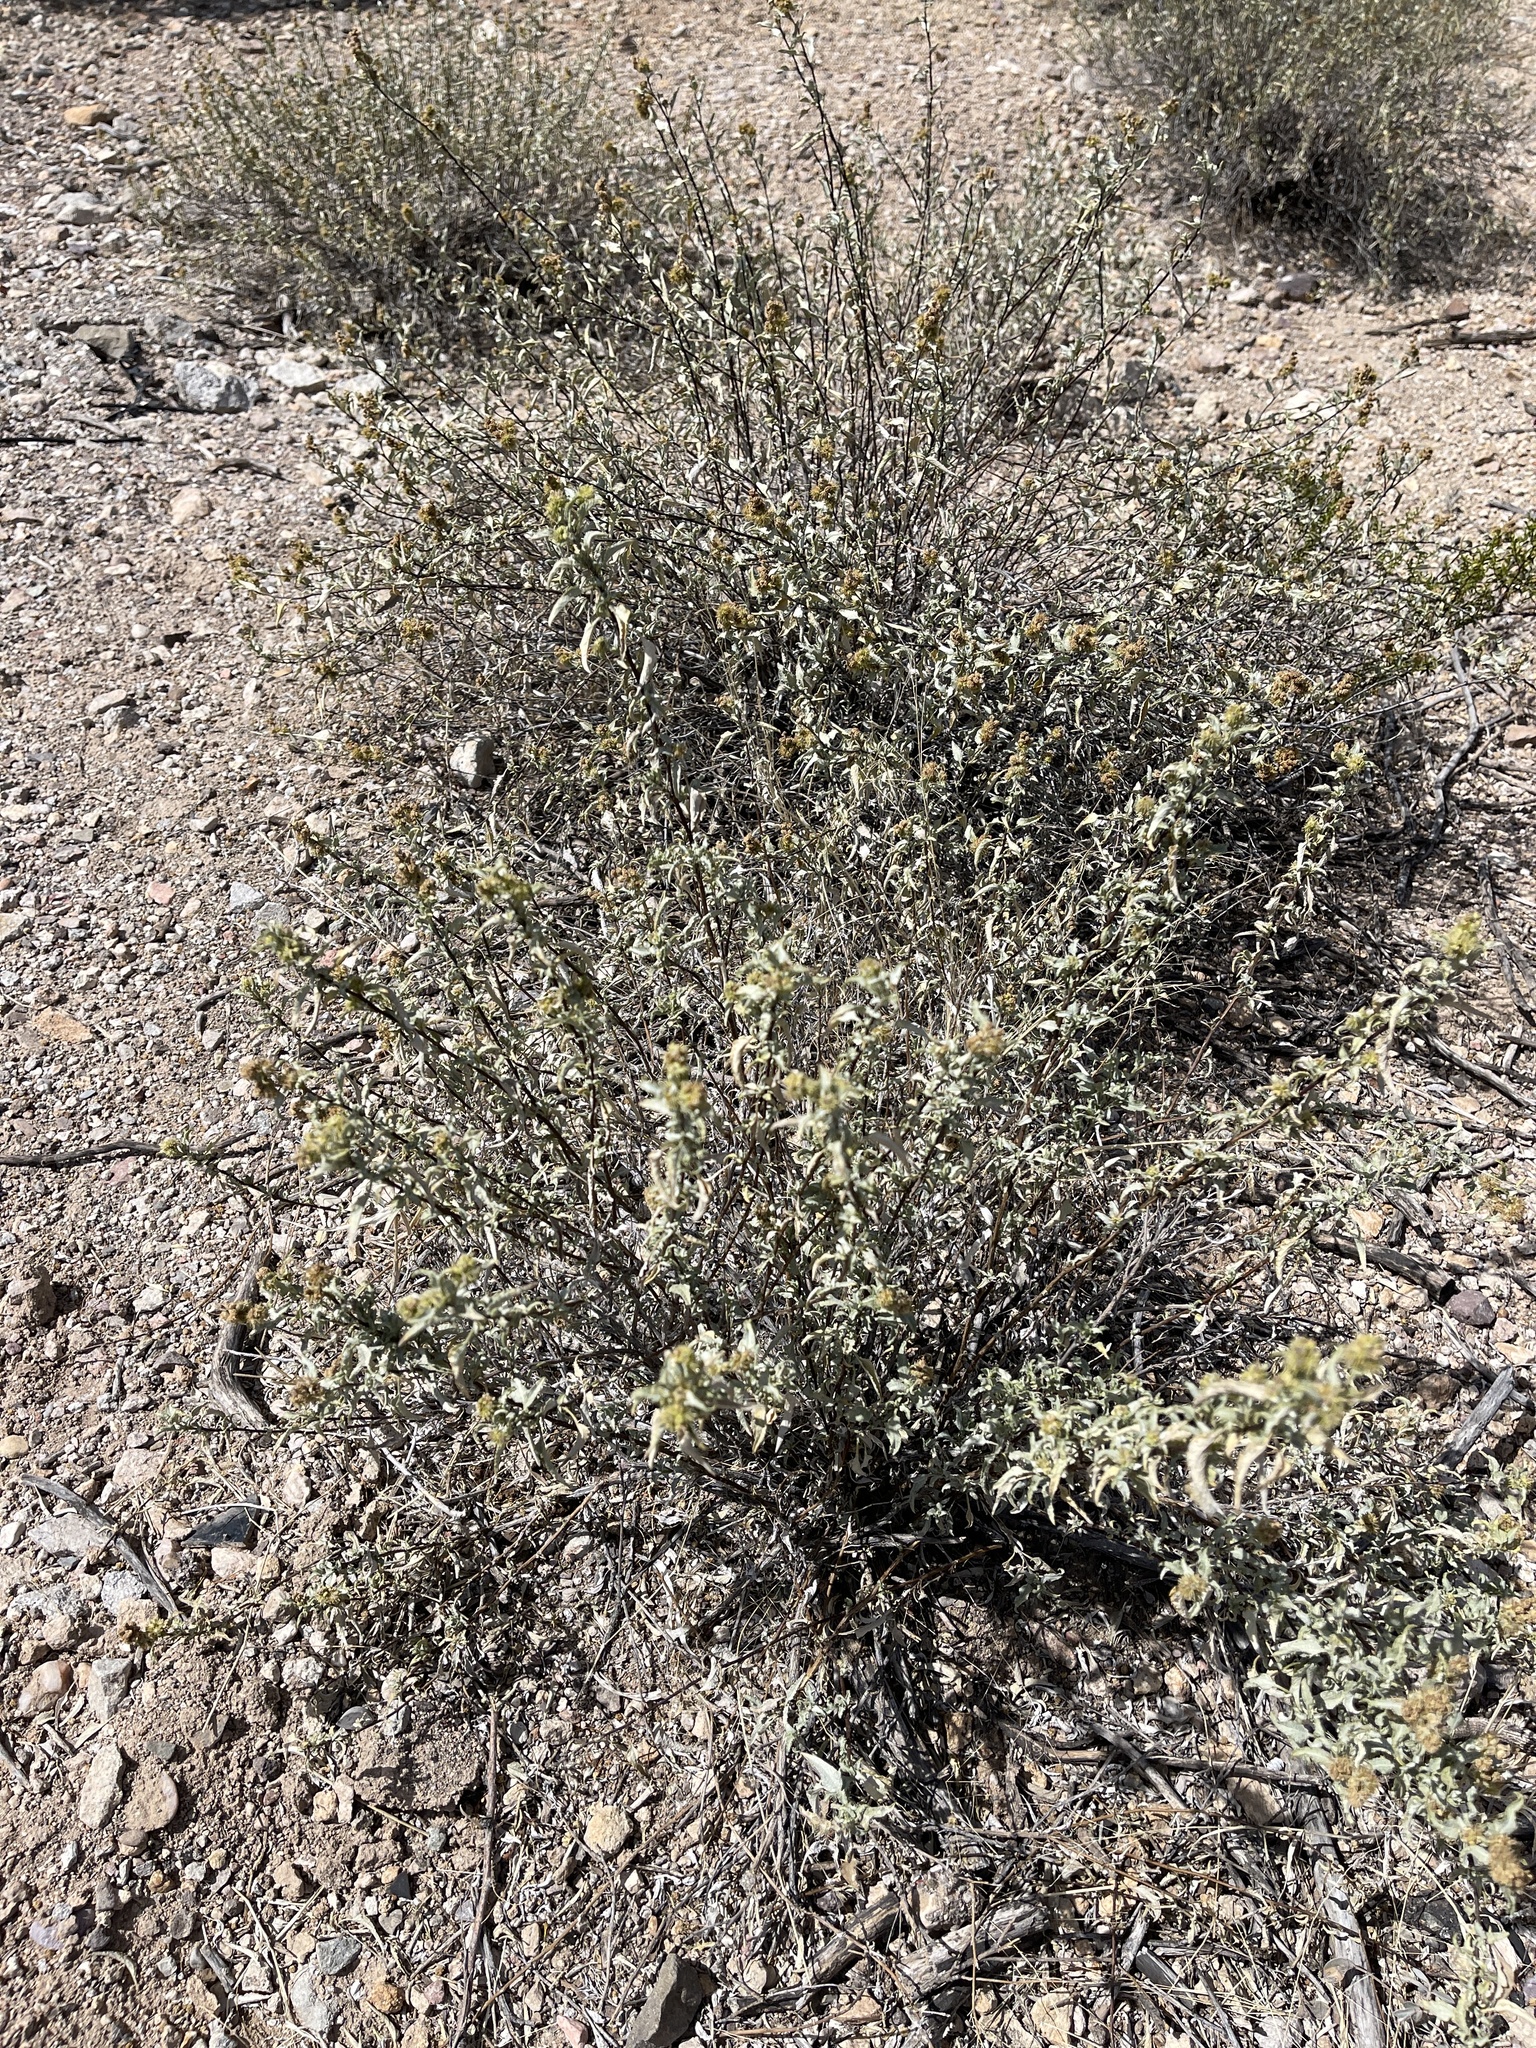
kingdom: Plantae
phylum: Tracheophyta
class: Magnoliopsida
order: Asterales
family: Asteraceae
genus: Ambrosia
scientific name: Ambrosia deltoidea
